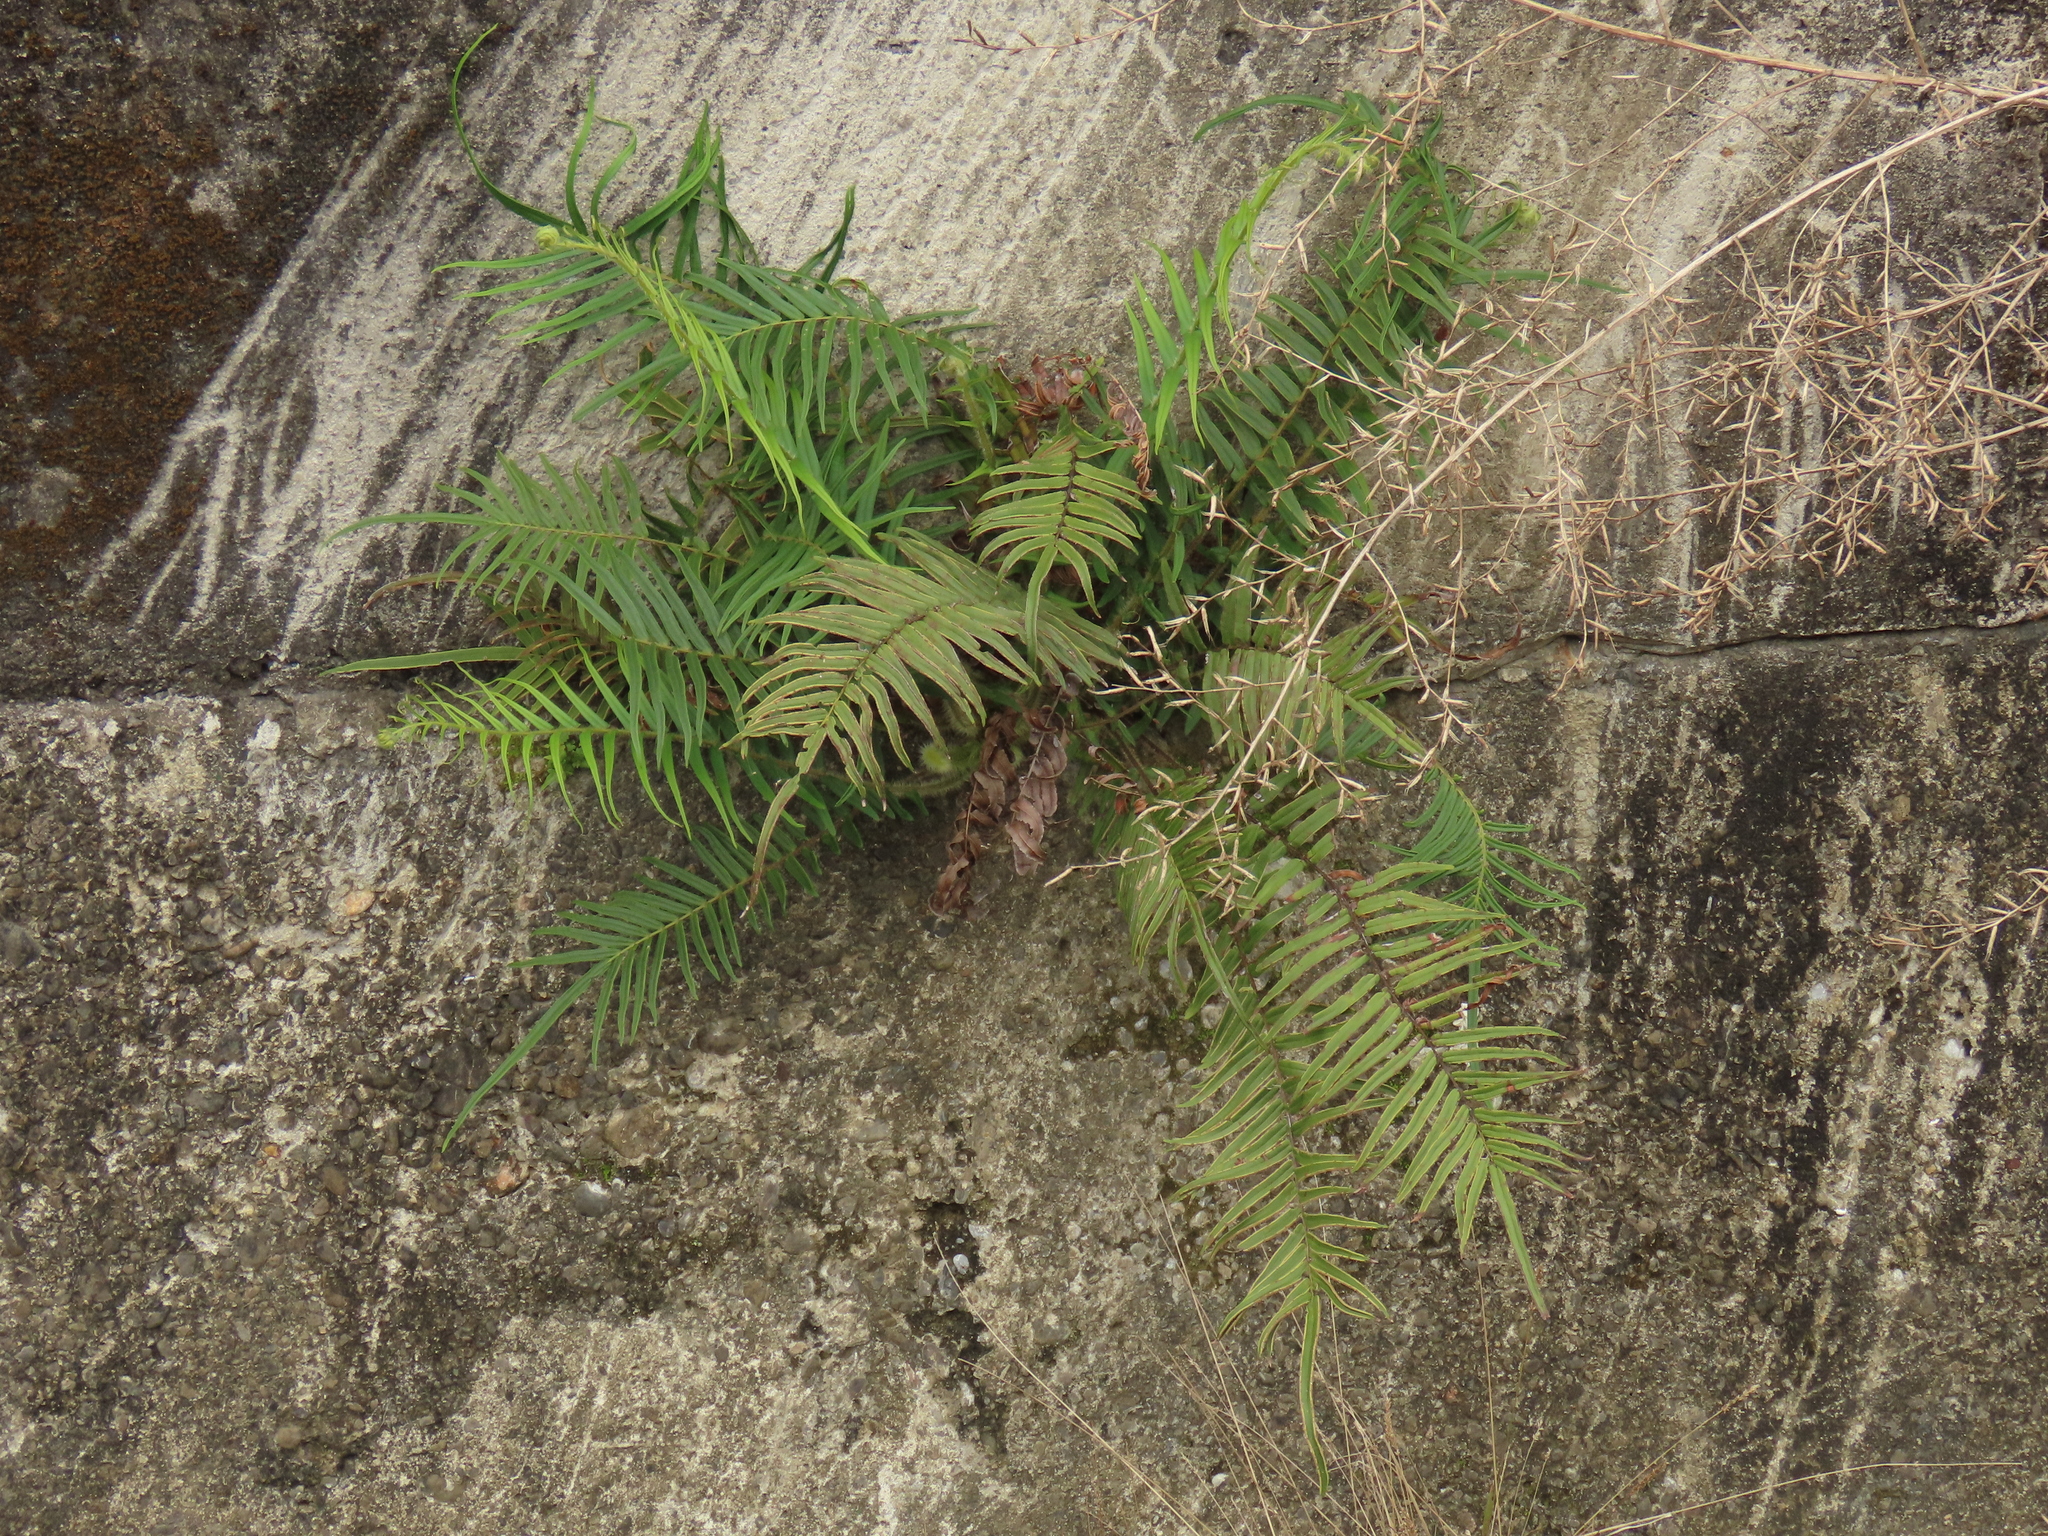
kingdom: Plantae
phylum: Tracheophyta
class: Polypodiopsida
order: Polypodiales
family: Pteridaceae
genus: Pteris
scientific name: Pteris vittata
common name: Ladder brake
